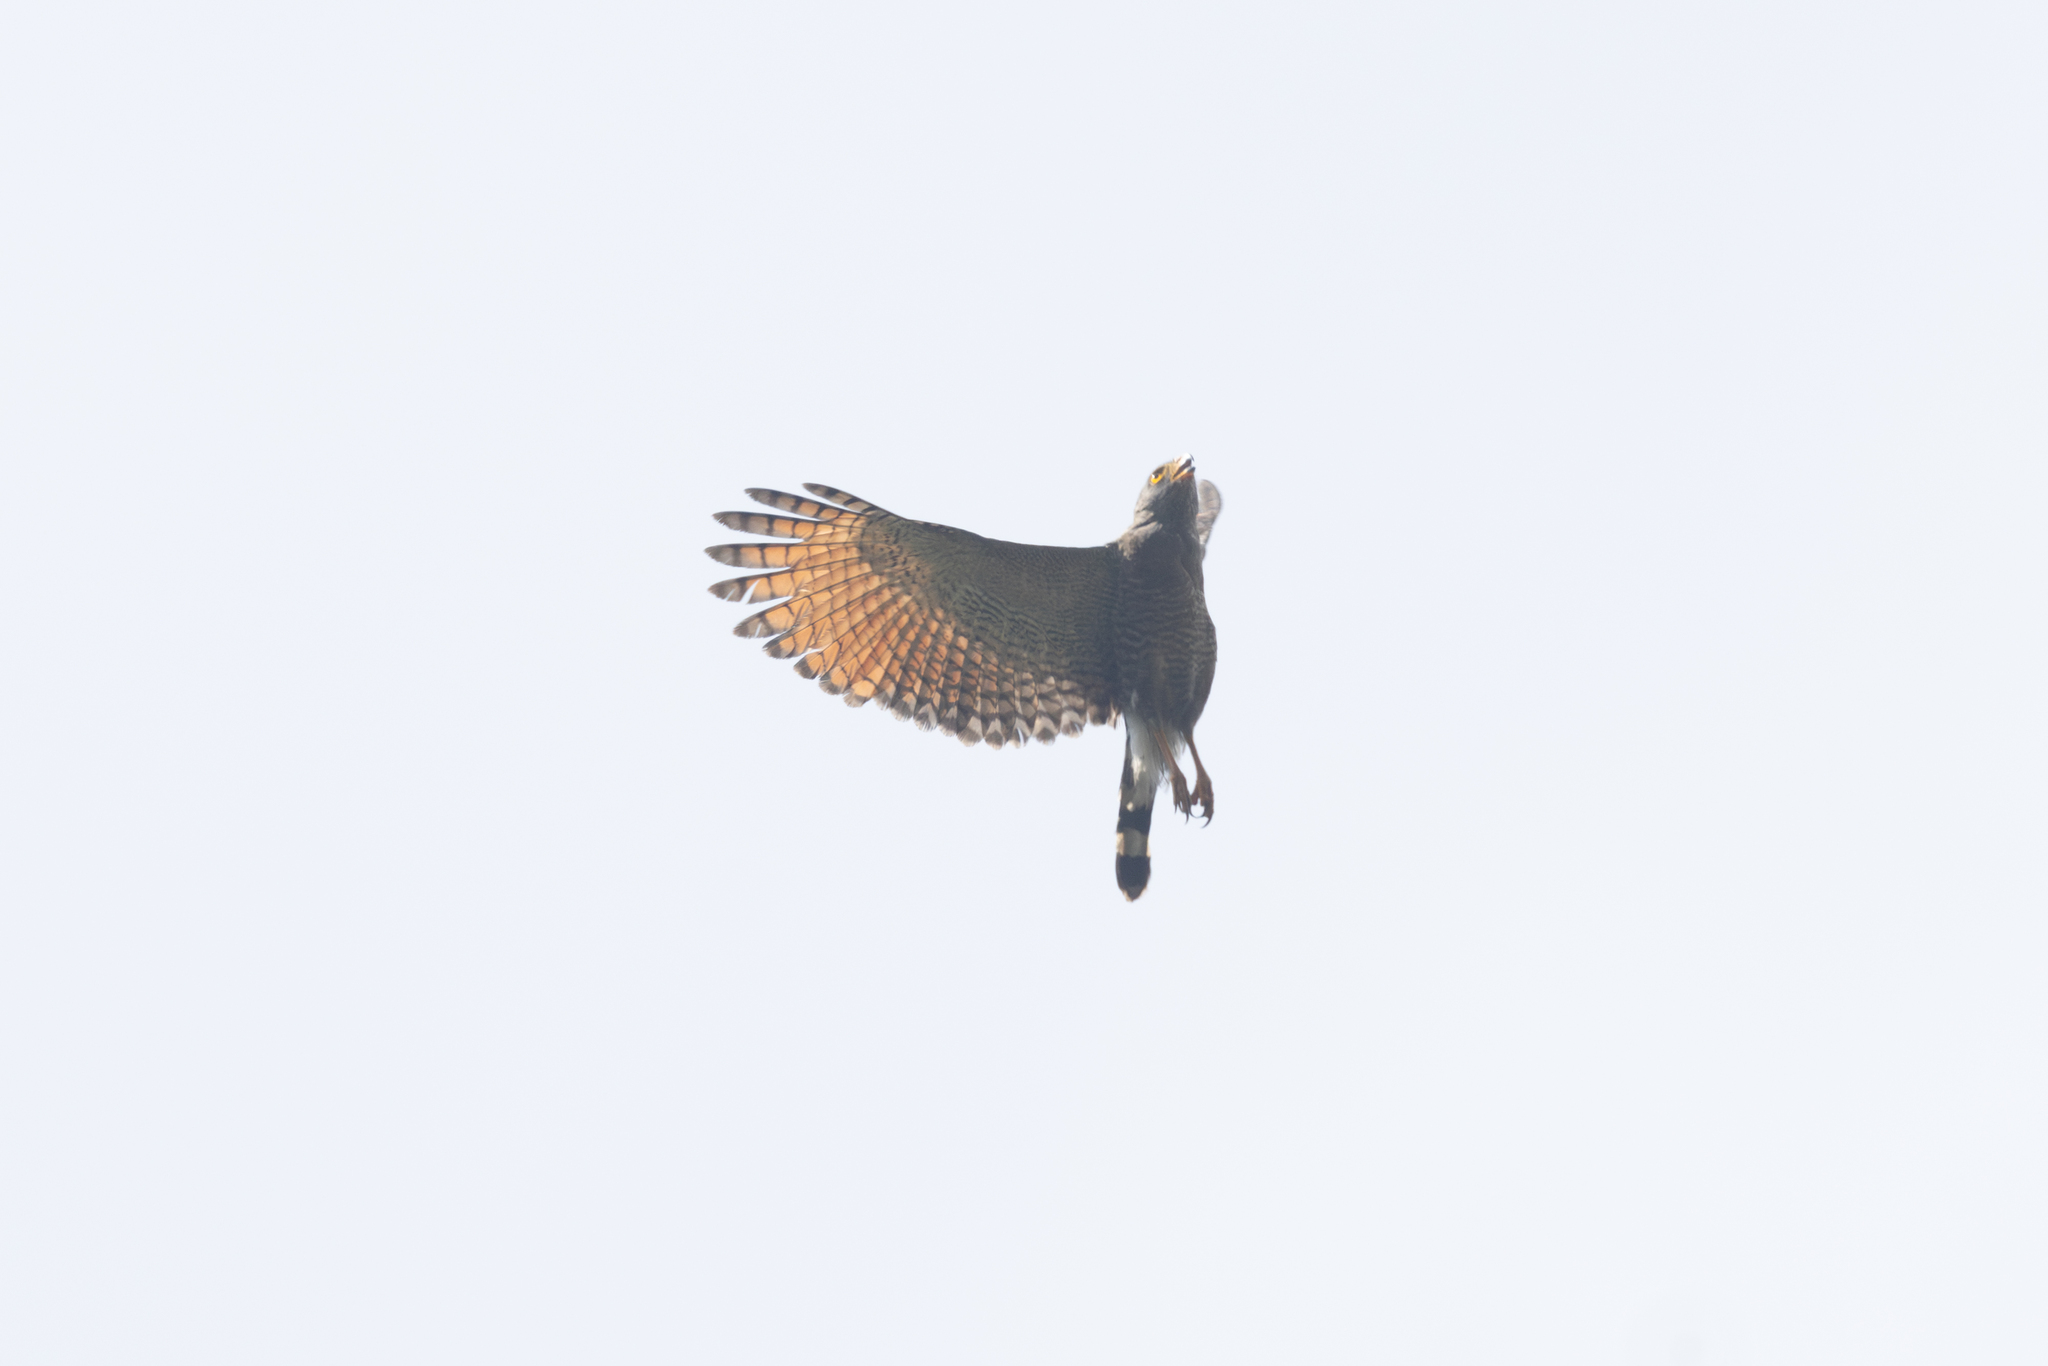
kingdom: Animalia
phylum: Chordata
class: Aves
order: Accipitriformes
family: Accipitridae
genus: Rupornis
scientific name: Rupornis magnirostris
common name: Roadside hawk
